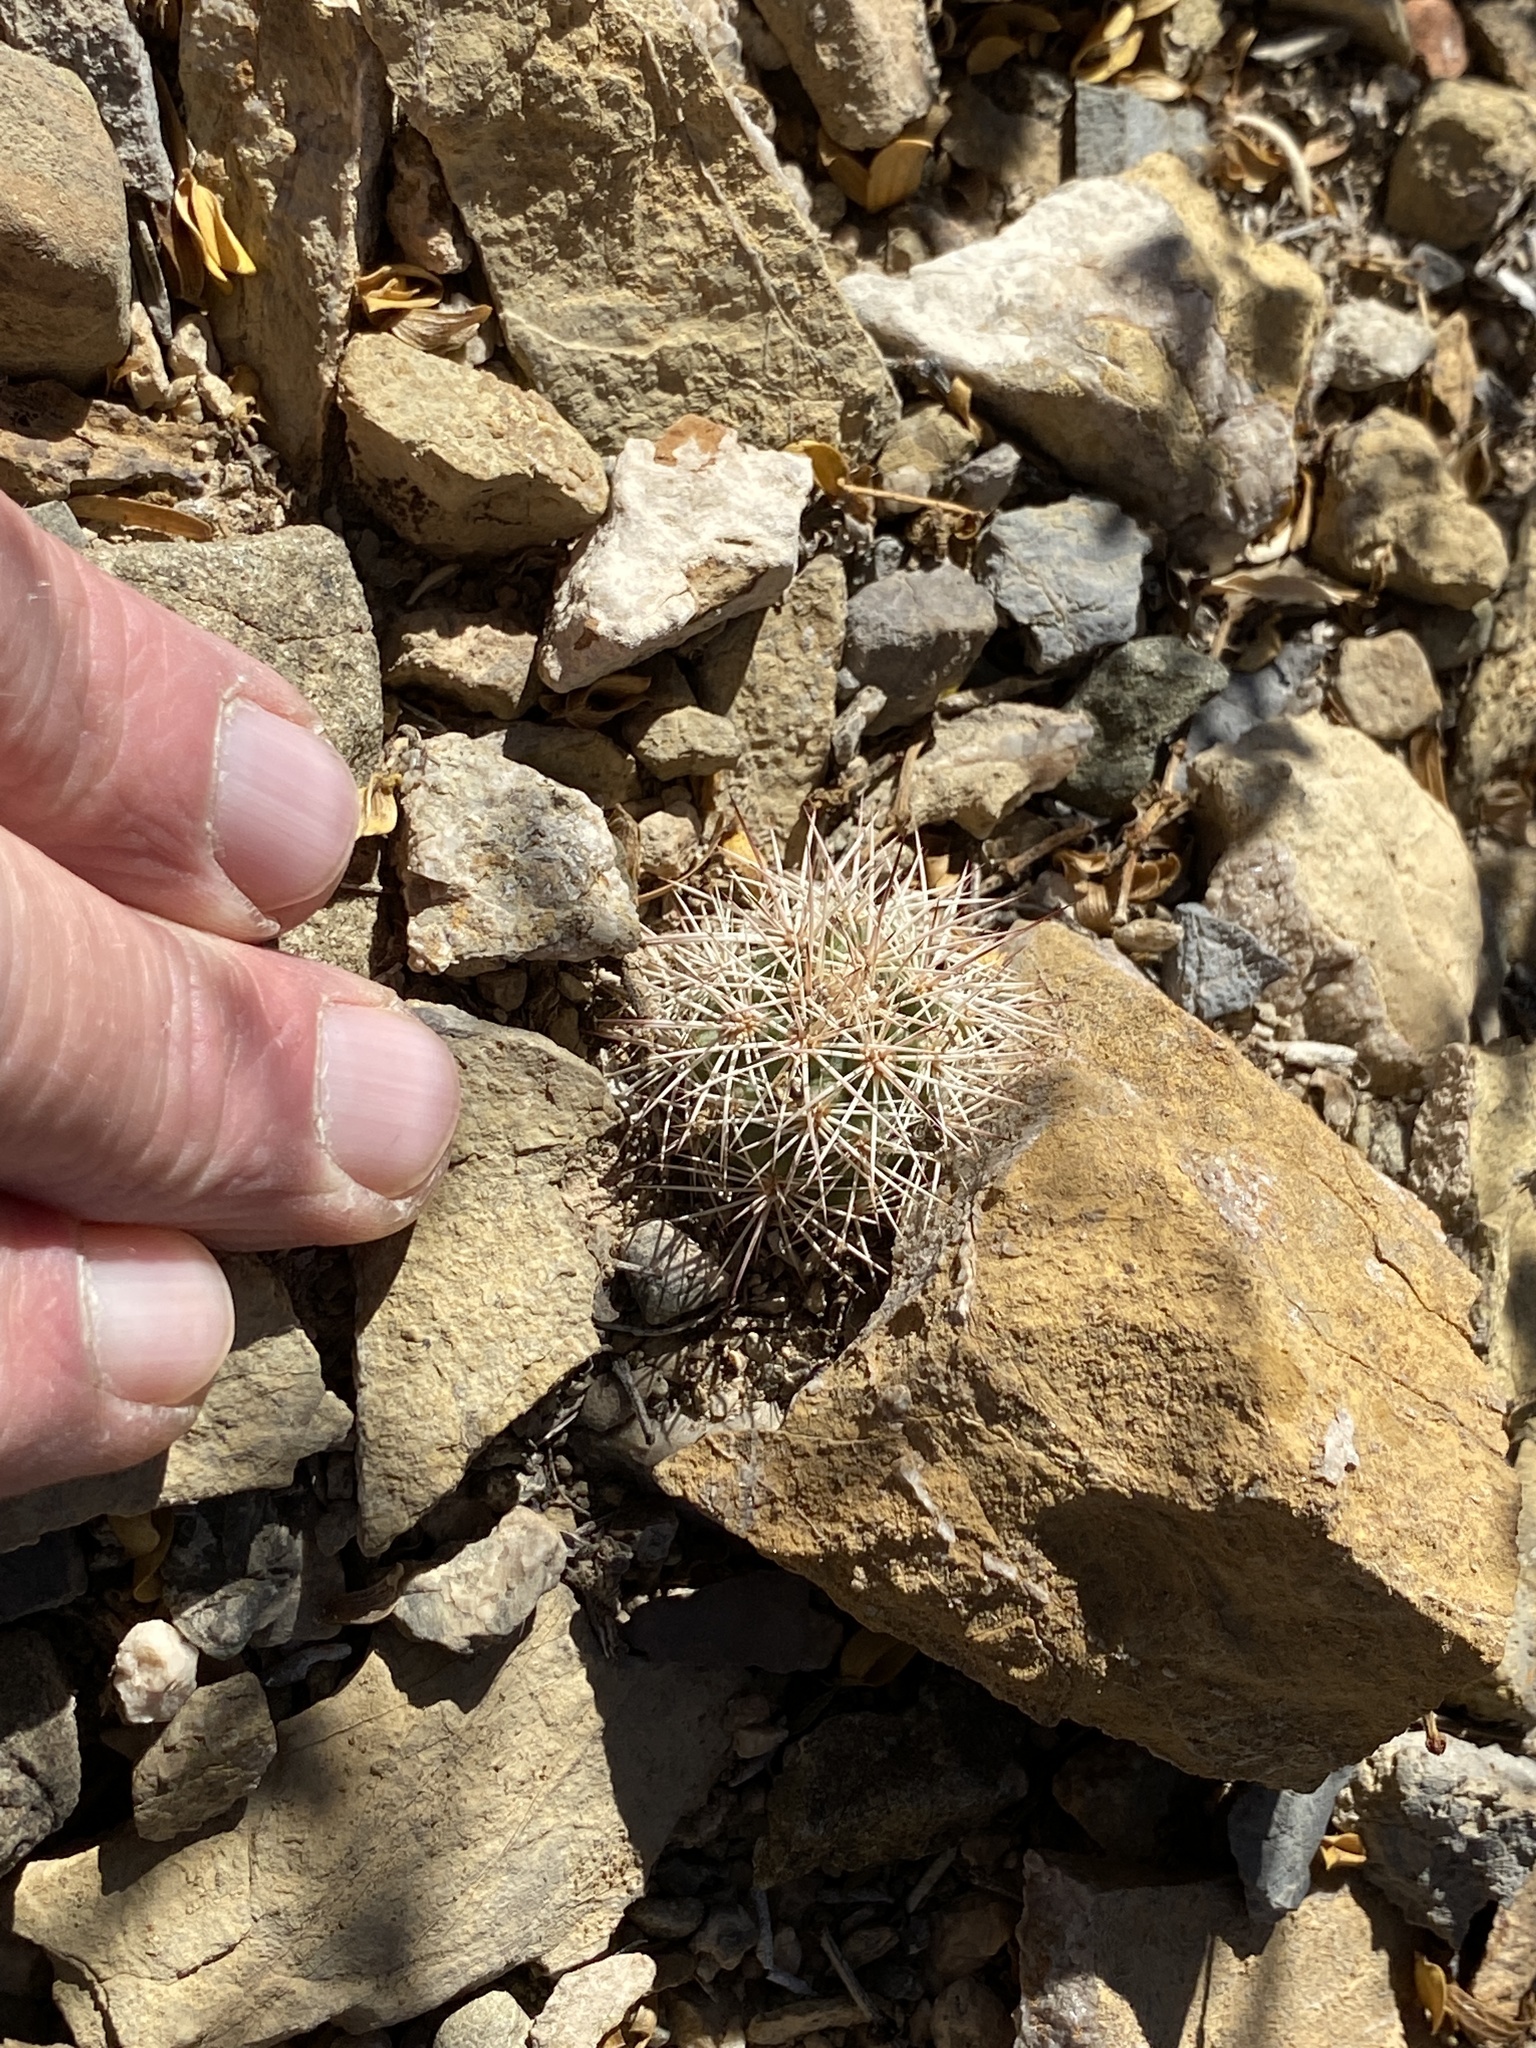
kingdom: Plantae
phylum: Tracheophyta
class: Magnoliopsida
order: Caryophyllales
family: Cactaceae
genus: Echinocereus
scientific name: Echinocereus dasyacanthus
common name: Spiny hedgehog cactus
